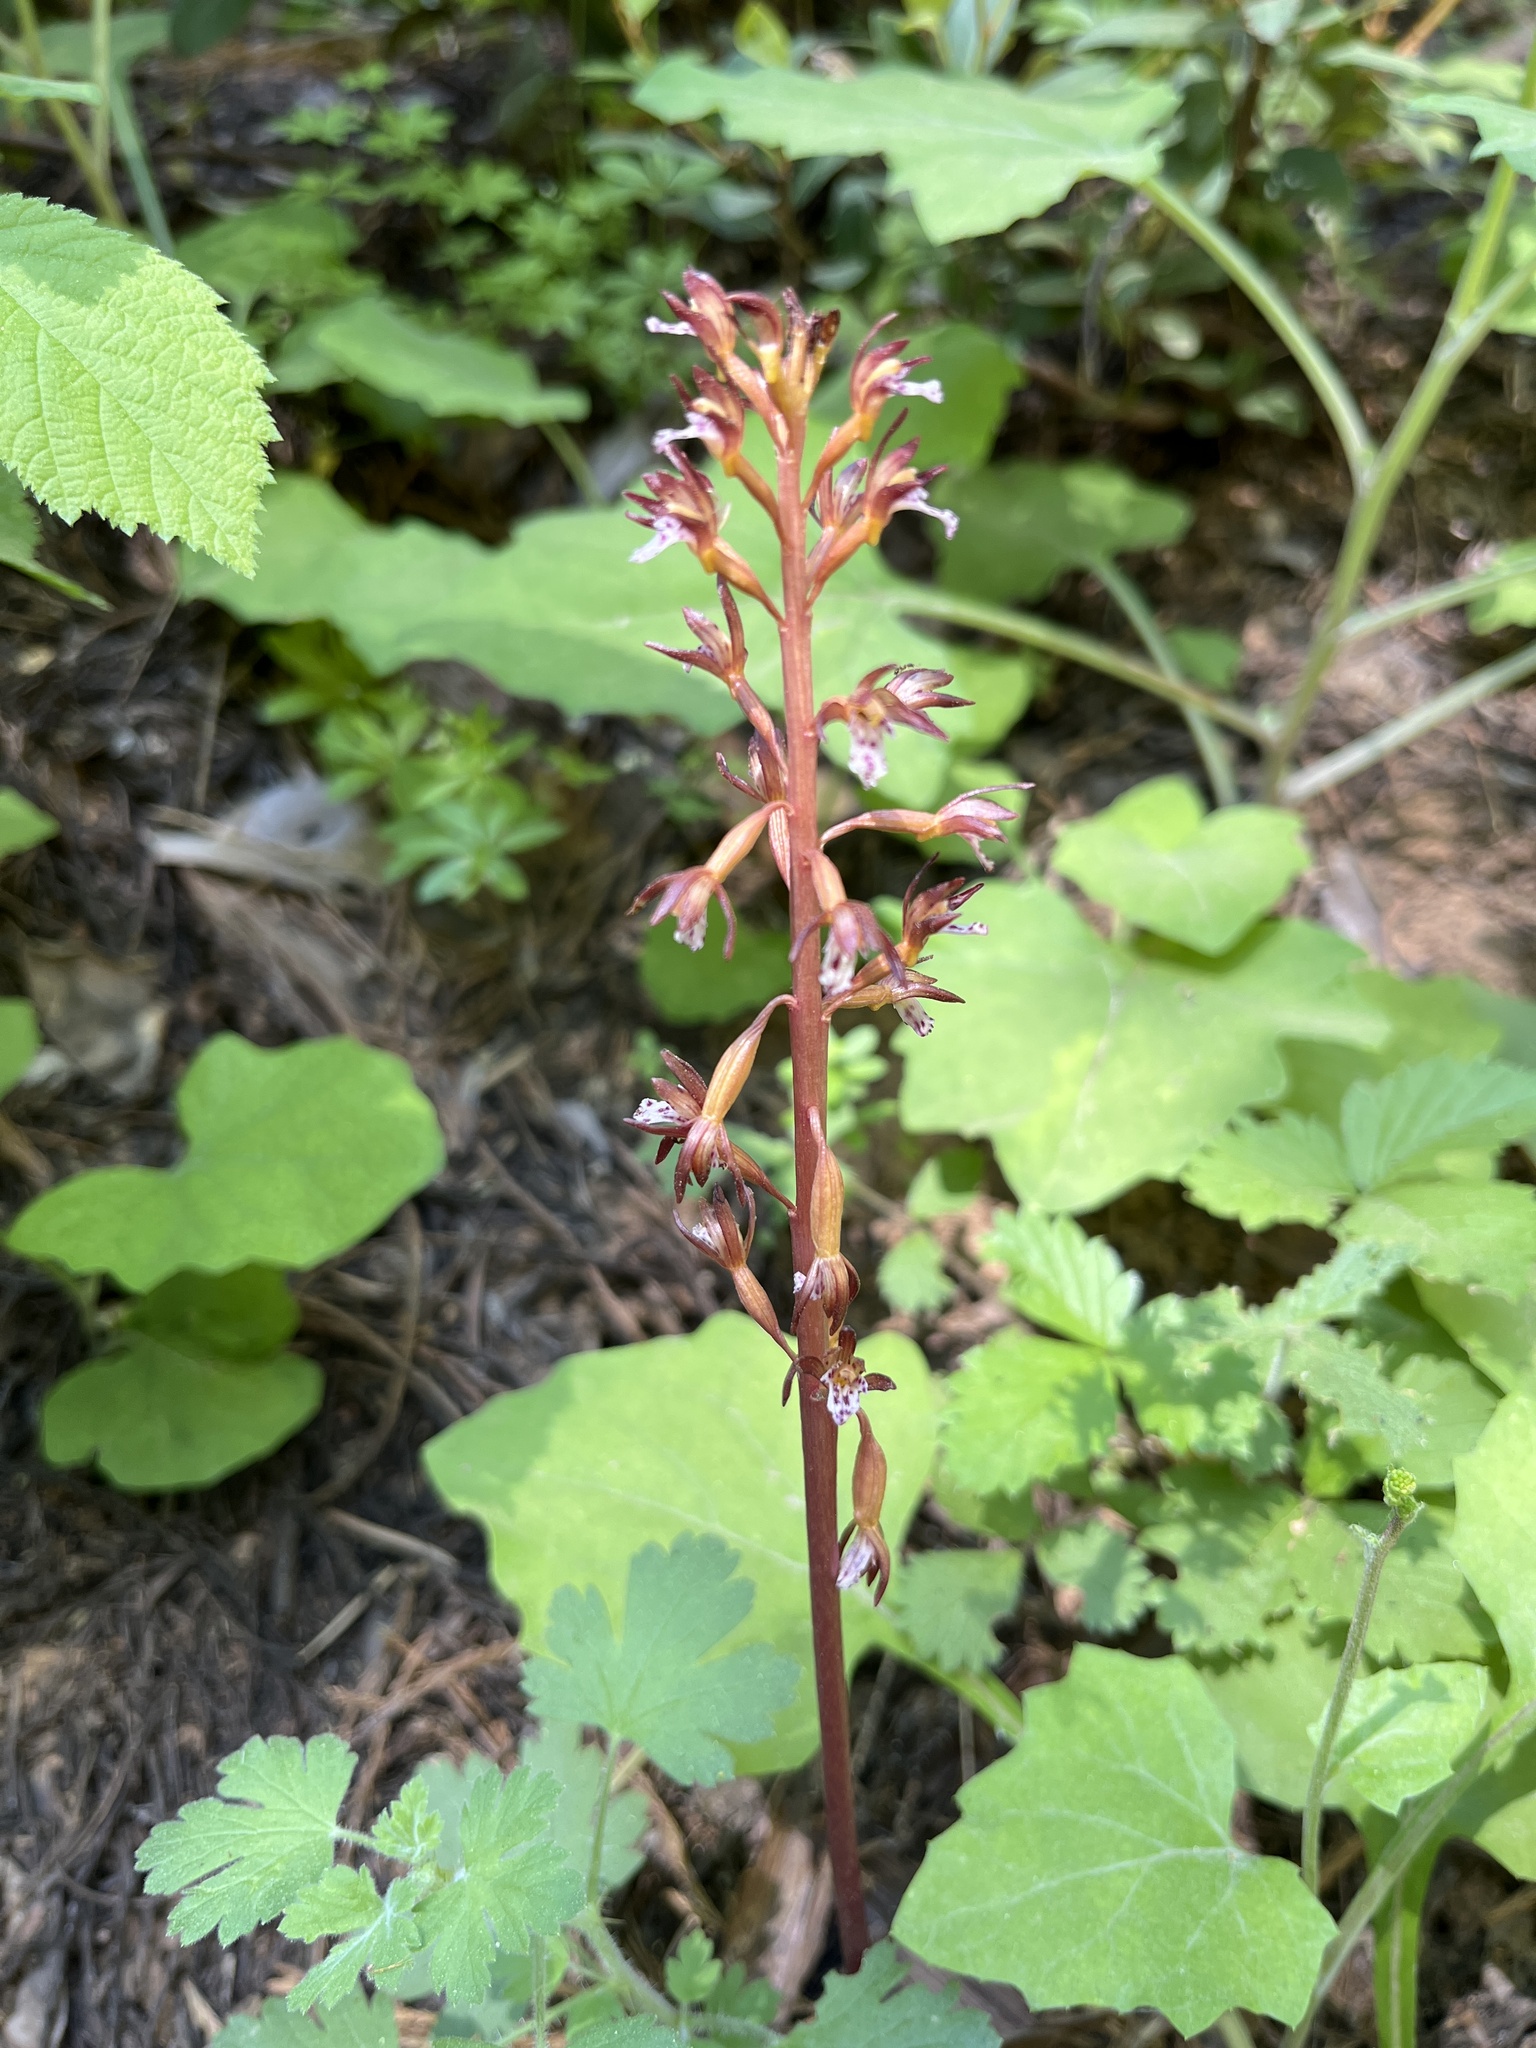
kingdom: Plantae
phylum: Tracheophyta
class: Liliopsida
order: Asparagales
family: Orchidaceae
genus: Corallorhiza
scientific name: Corallorhiza maculata
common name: Spotted coralroot
